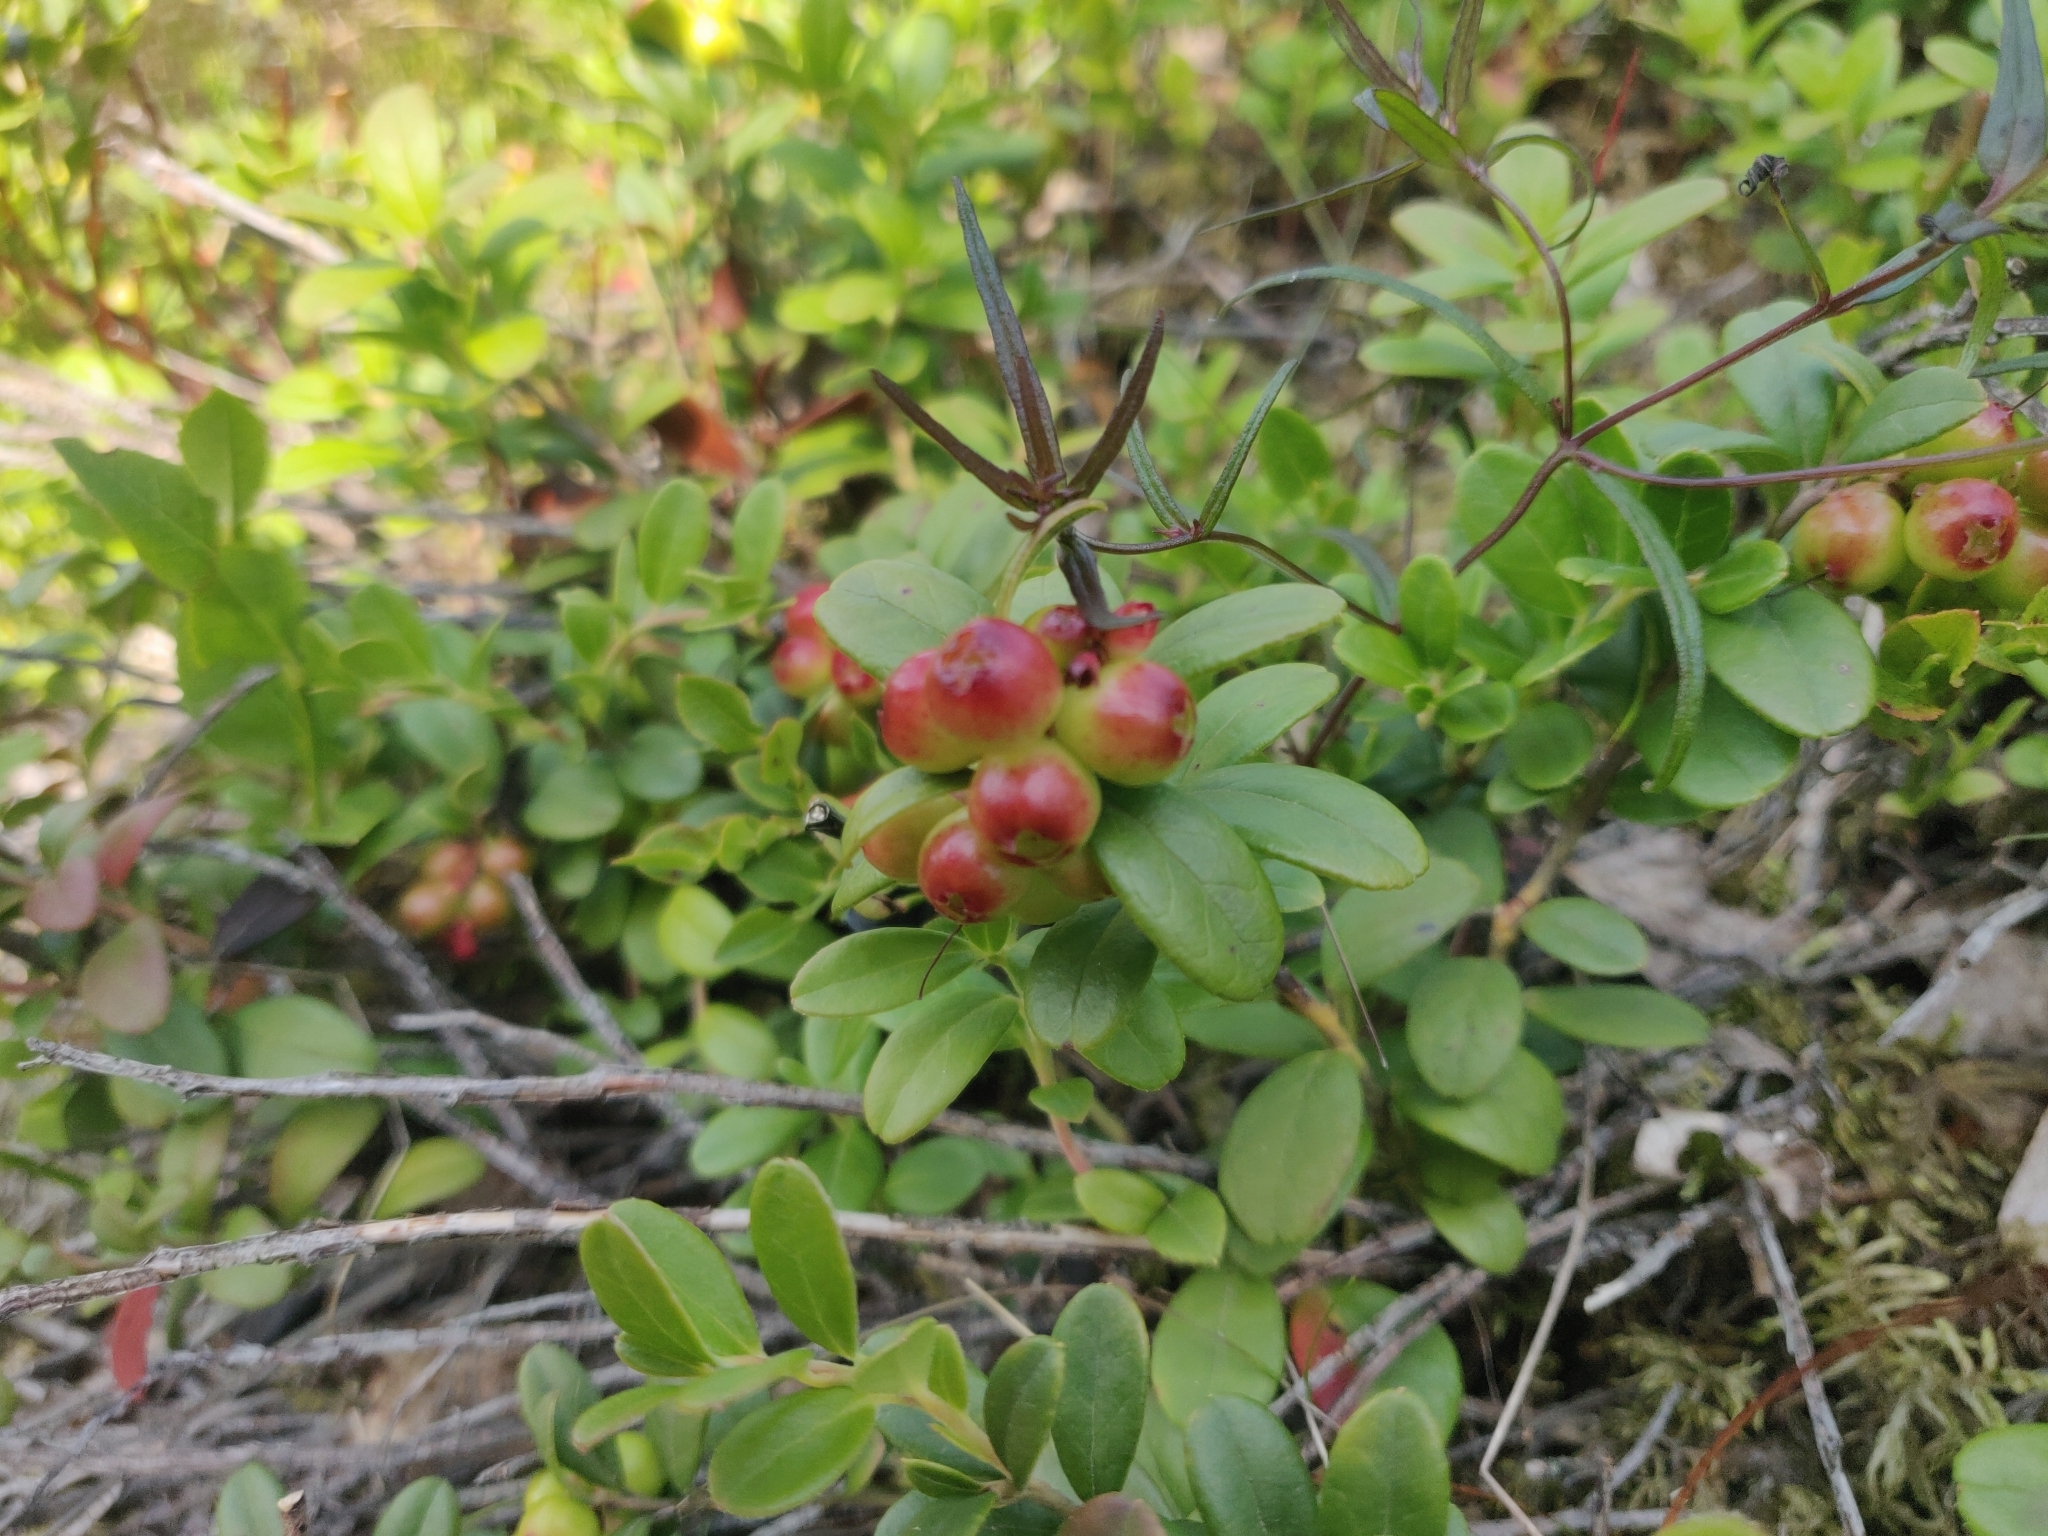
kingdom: Plantae
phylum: Tracheophyta
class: Magnoliopsida
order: Ericales
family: Ericaceae
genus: Vaccinium
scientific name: Vaccinium vitis-idaea
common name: Cowberry
